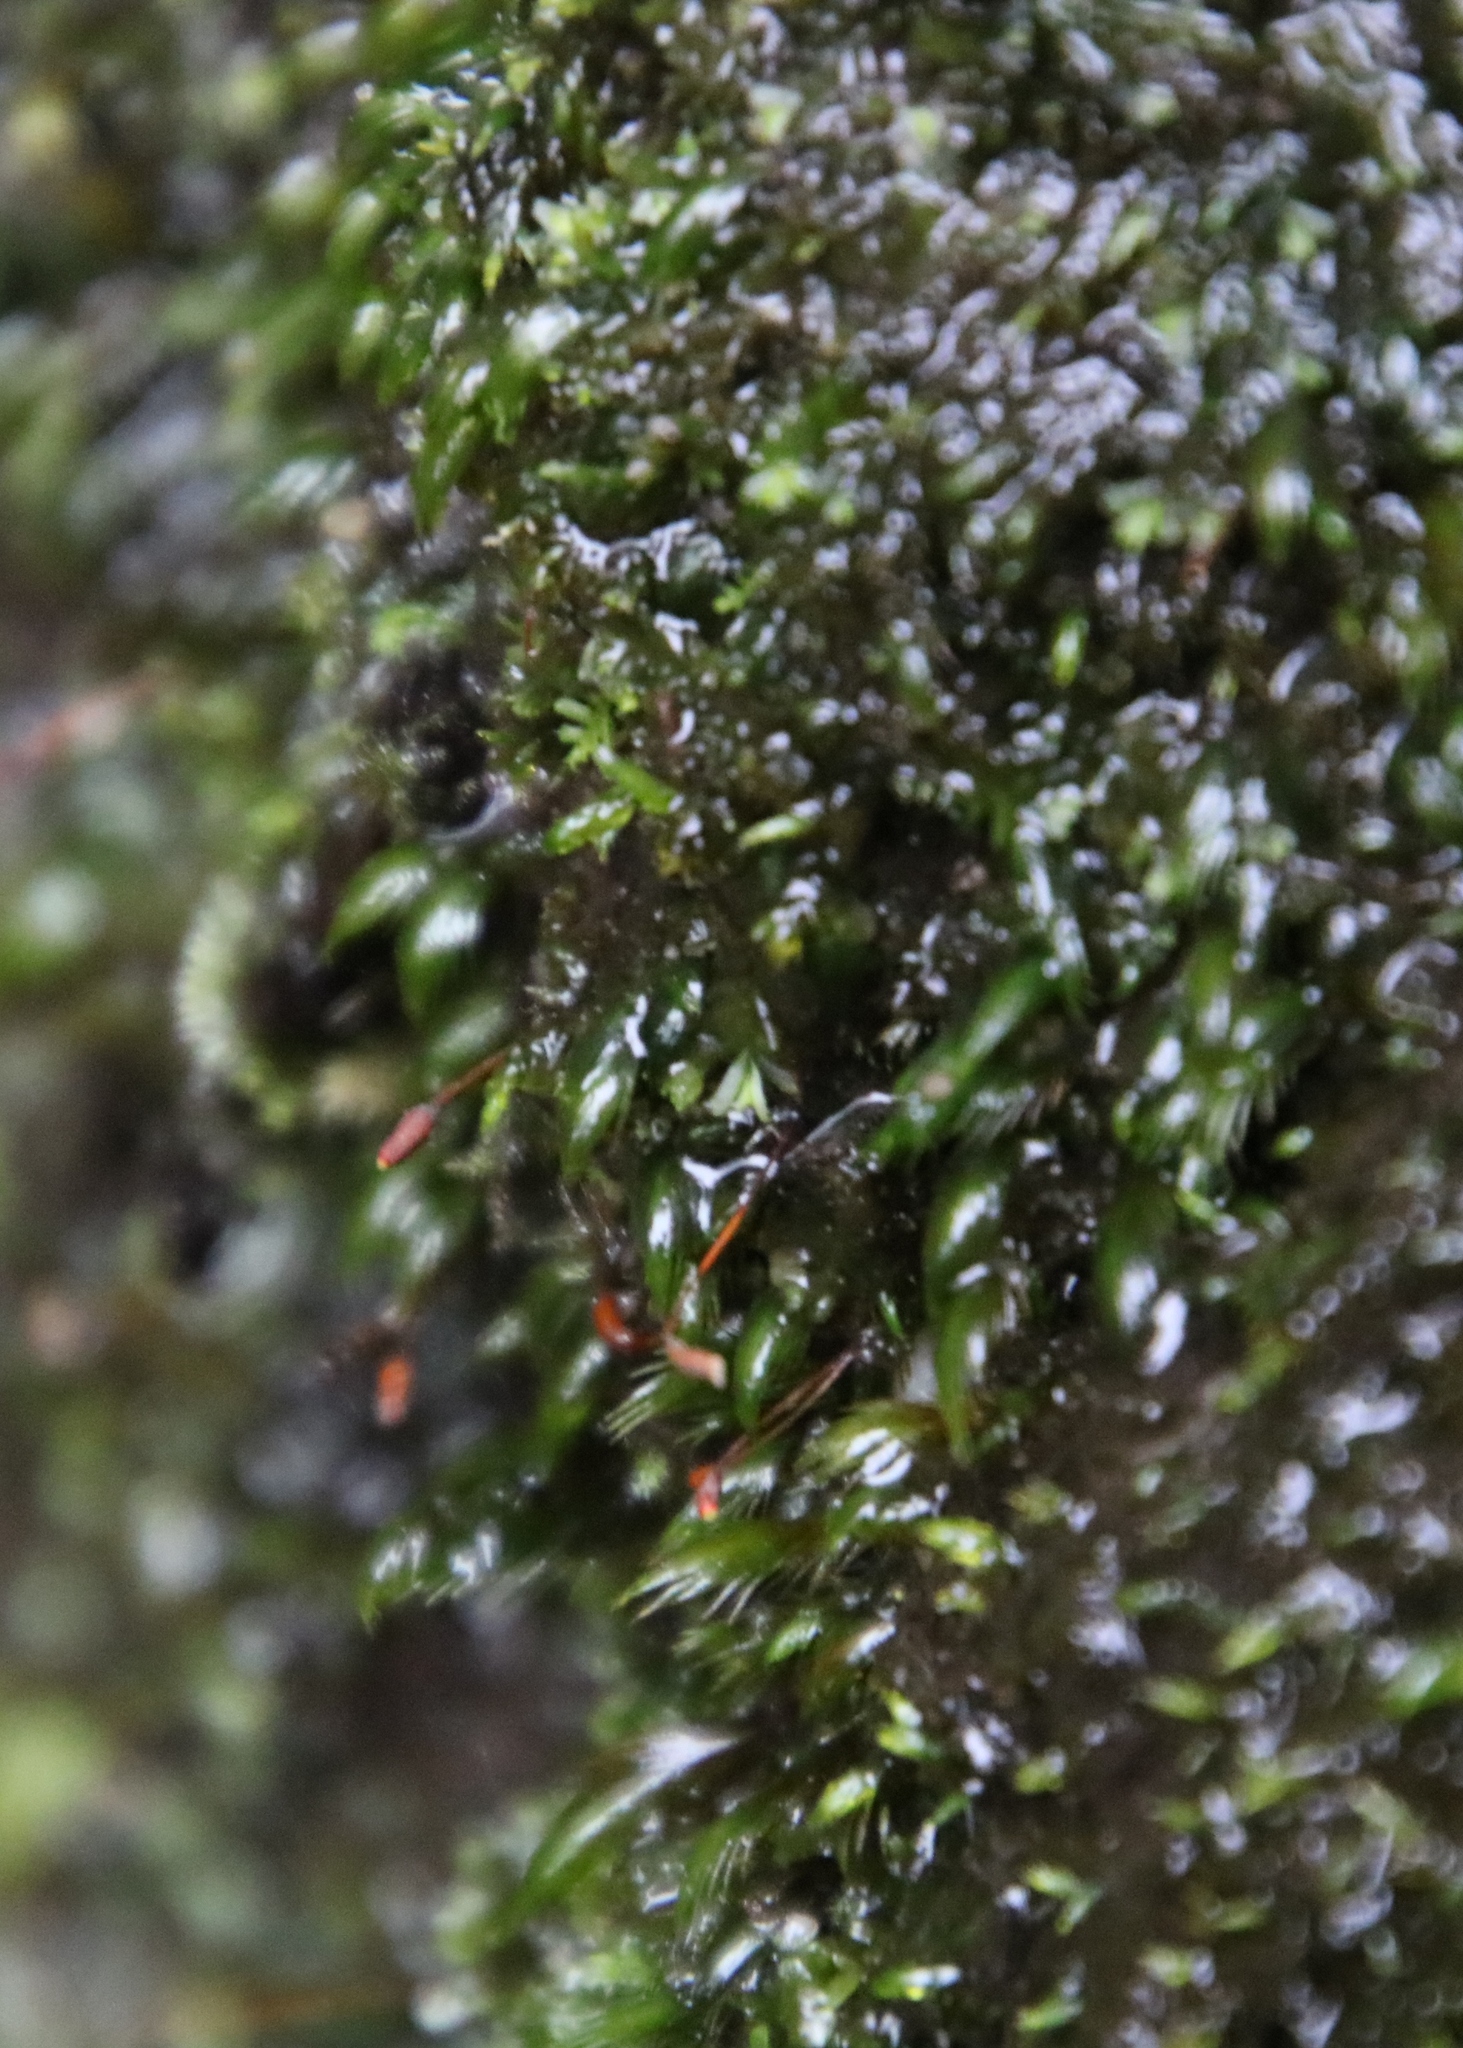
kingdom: Plantae
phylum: Bryophyta
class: Bryopsida
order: Dicranales
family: Fissidentaceae
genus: Fissidens
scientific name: Fissidens fasciculatus
